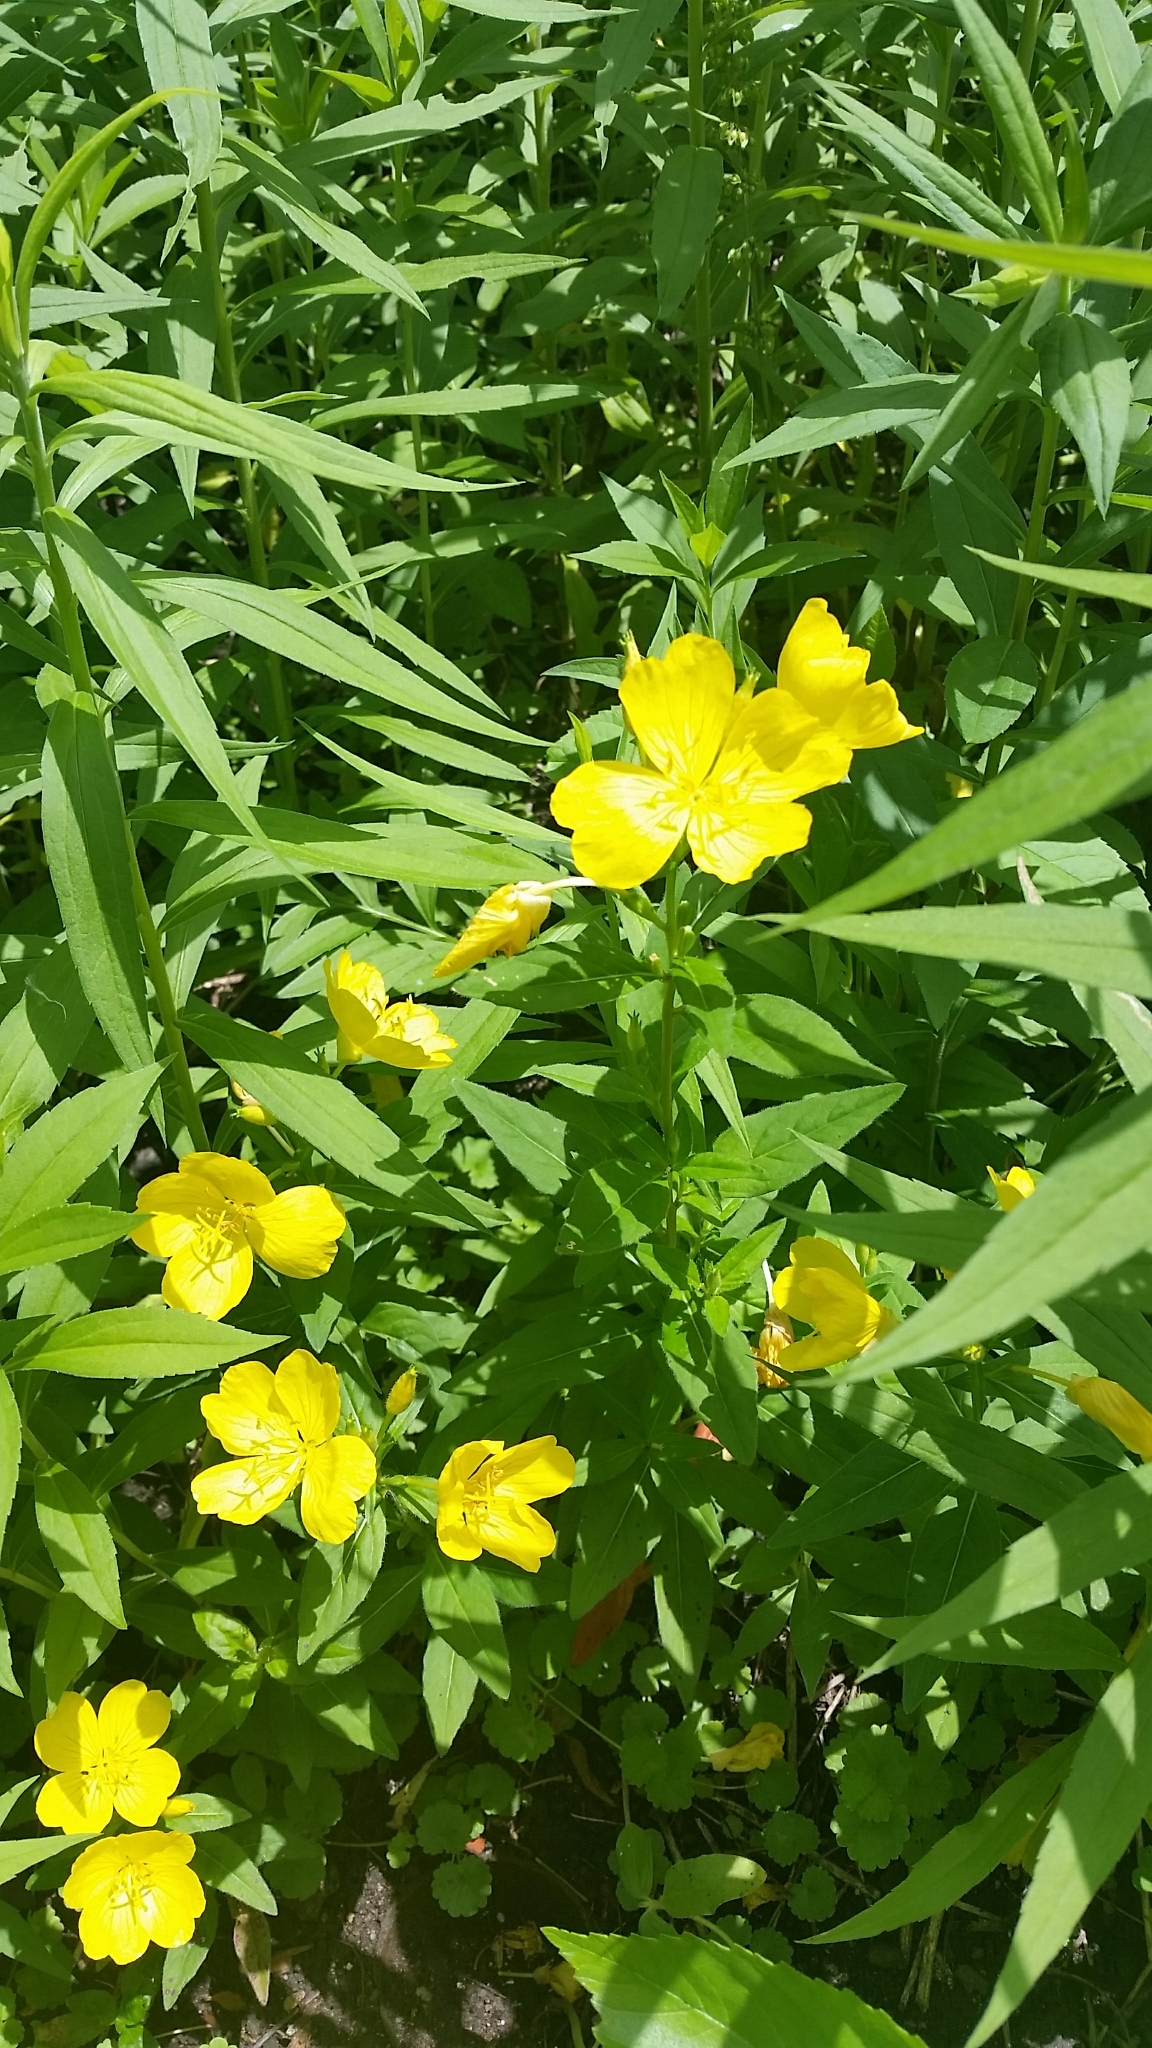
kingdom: Plantae
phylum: Tracheophyta
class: Magnoliopsida
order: Myrtales
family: Onagraceae
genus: Oenothera
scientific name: Oenothera pilosella
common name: Finely-pilose evening-primrose
